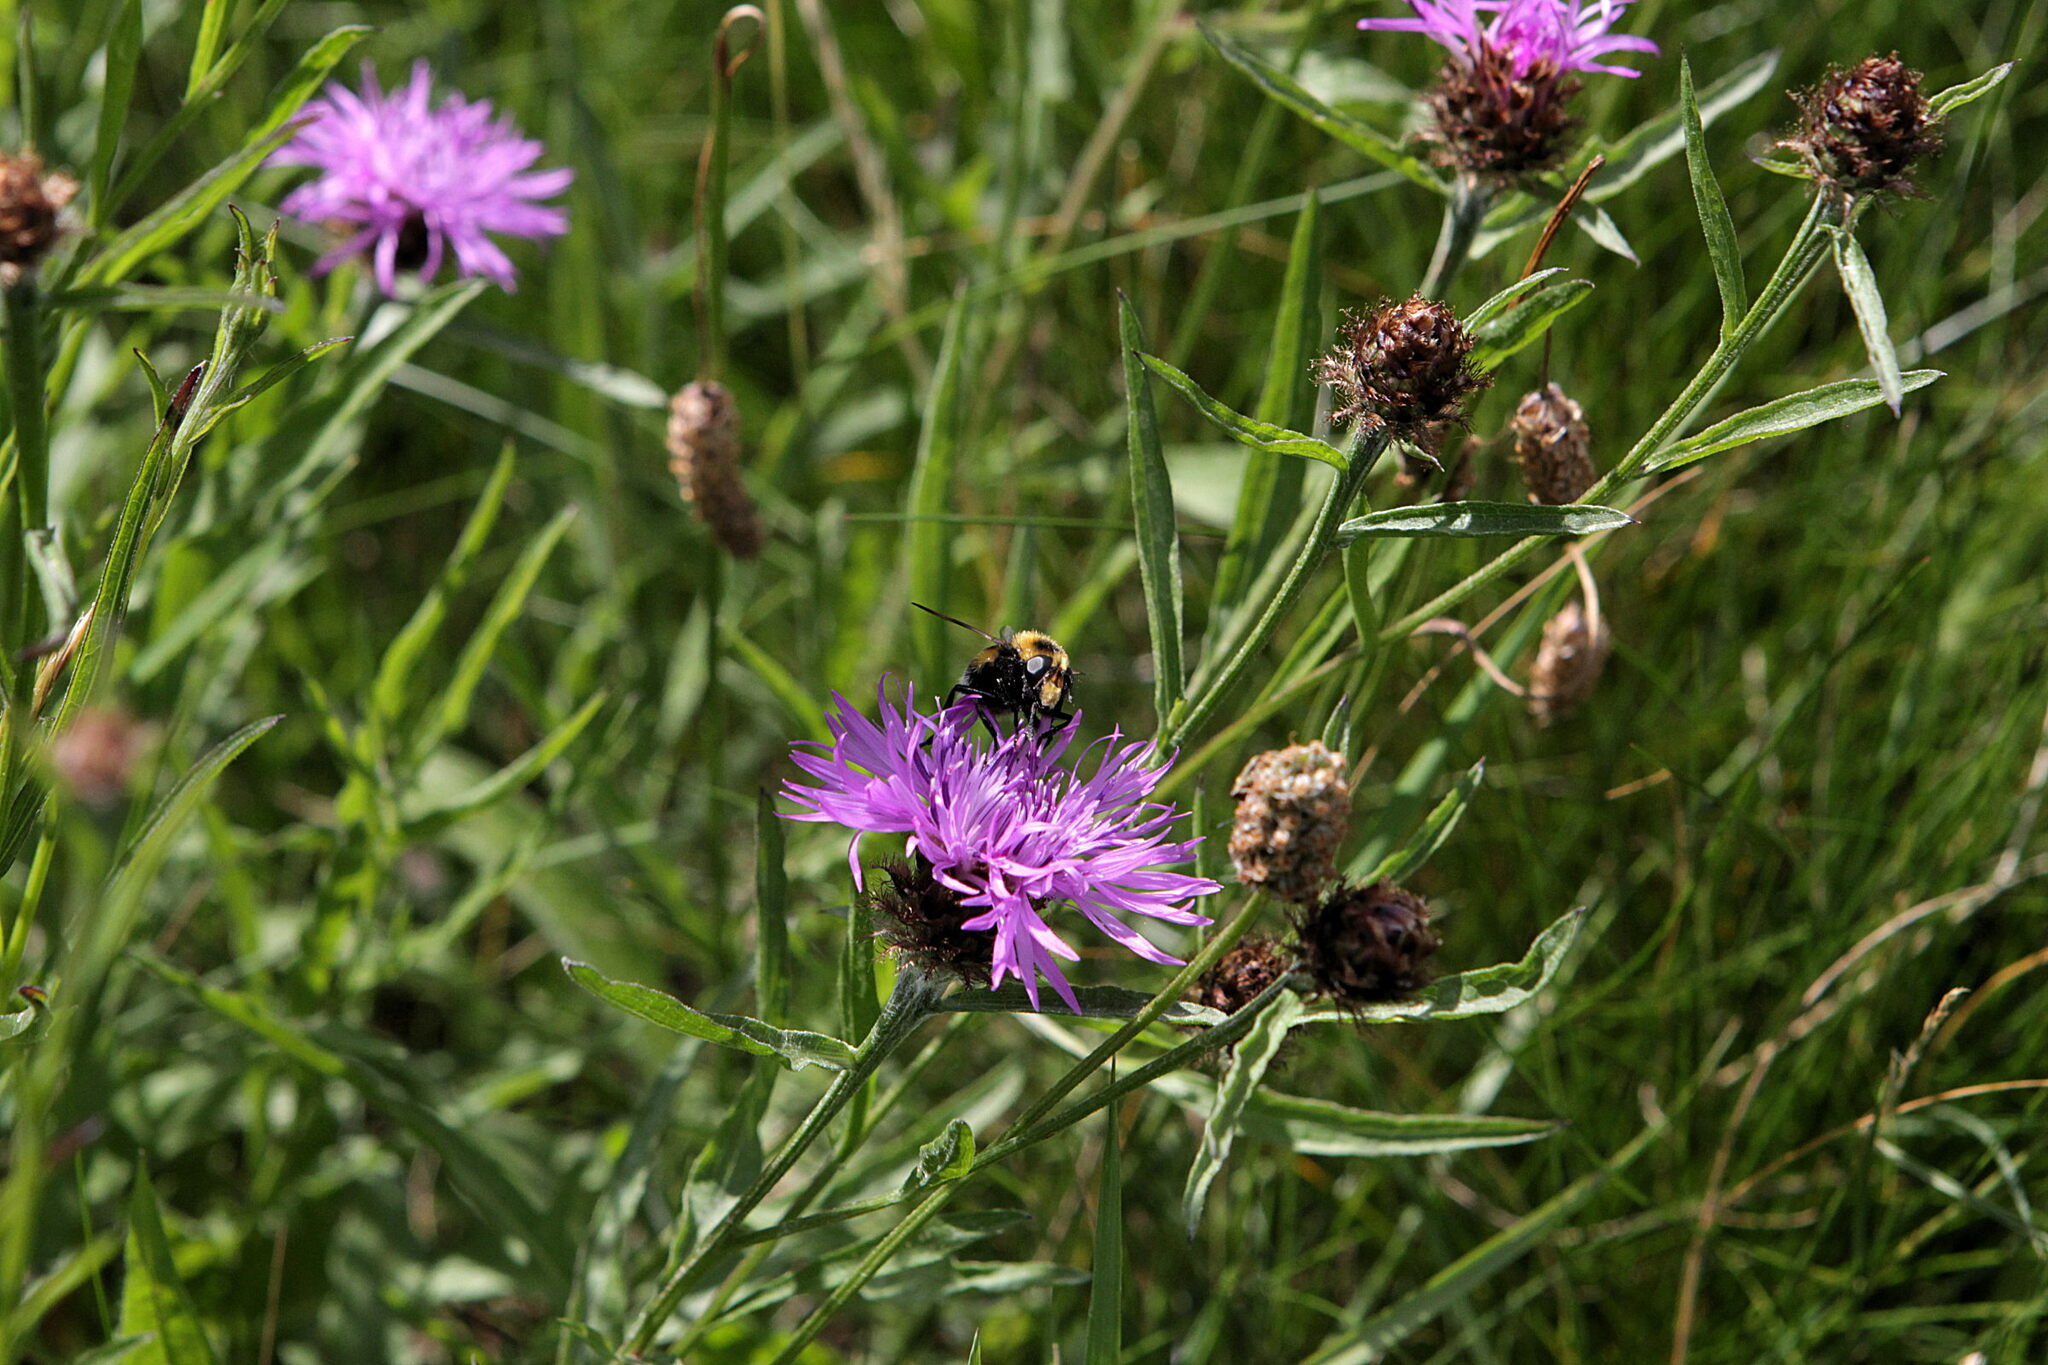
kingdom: Animalia
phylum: Arthropoda
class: Insecta
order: Diptera
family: Syrphidae
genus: Volucella
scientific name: Volucella bombylans
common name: Bumble bee hover fly
